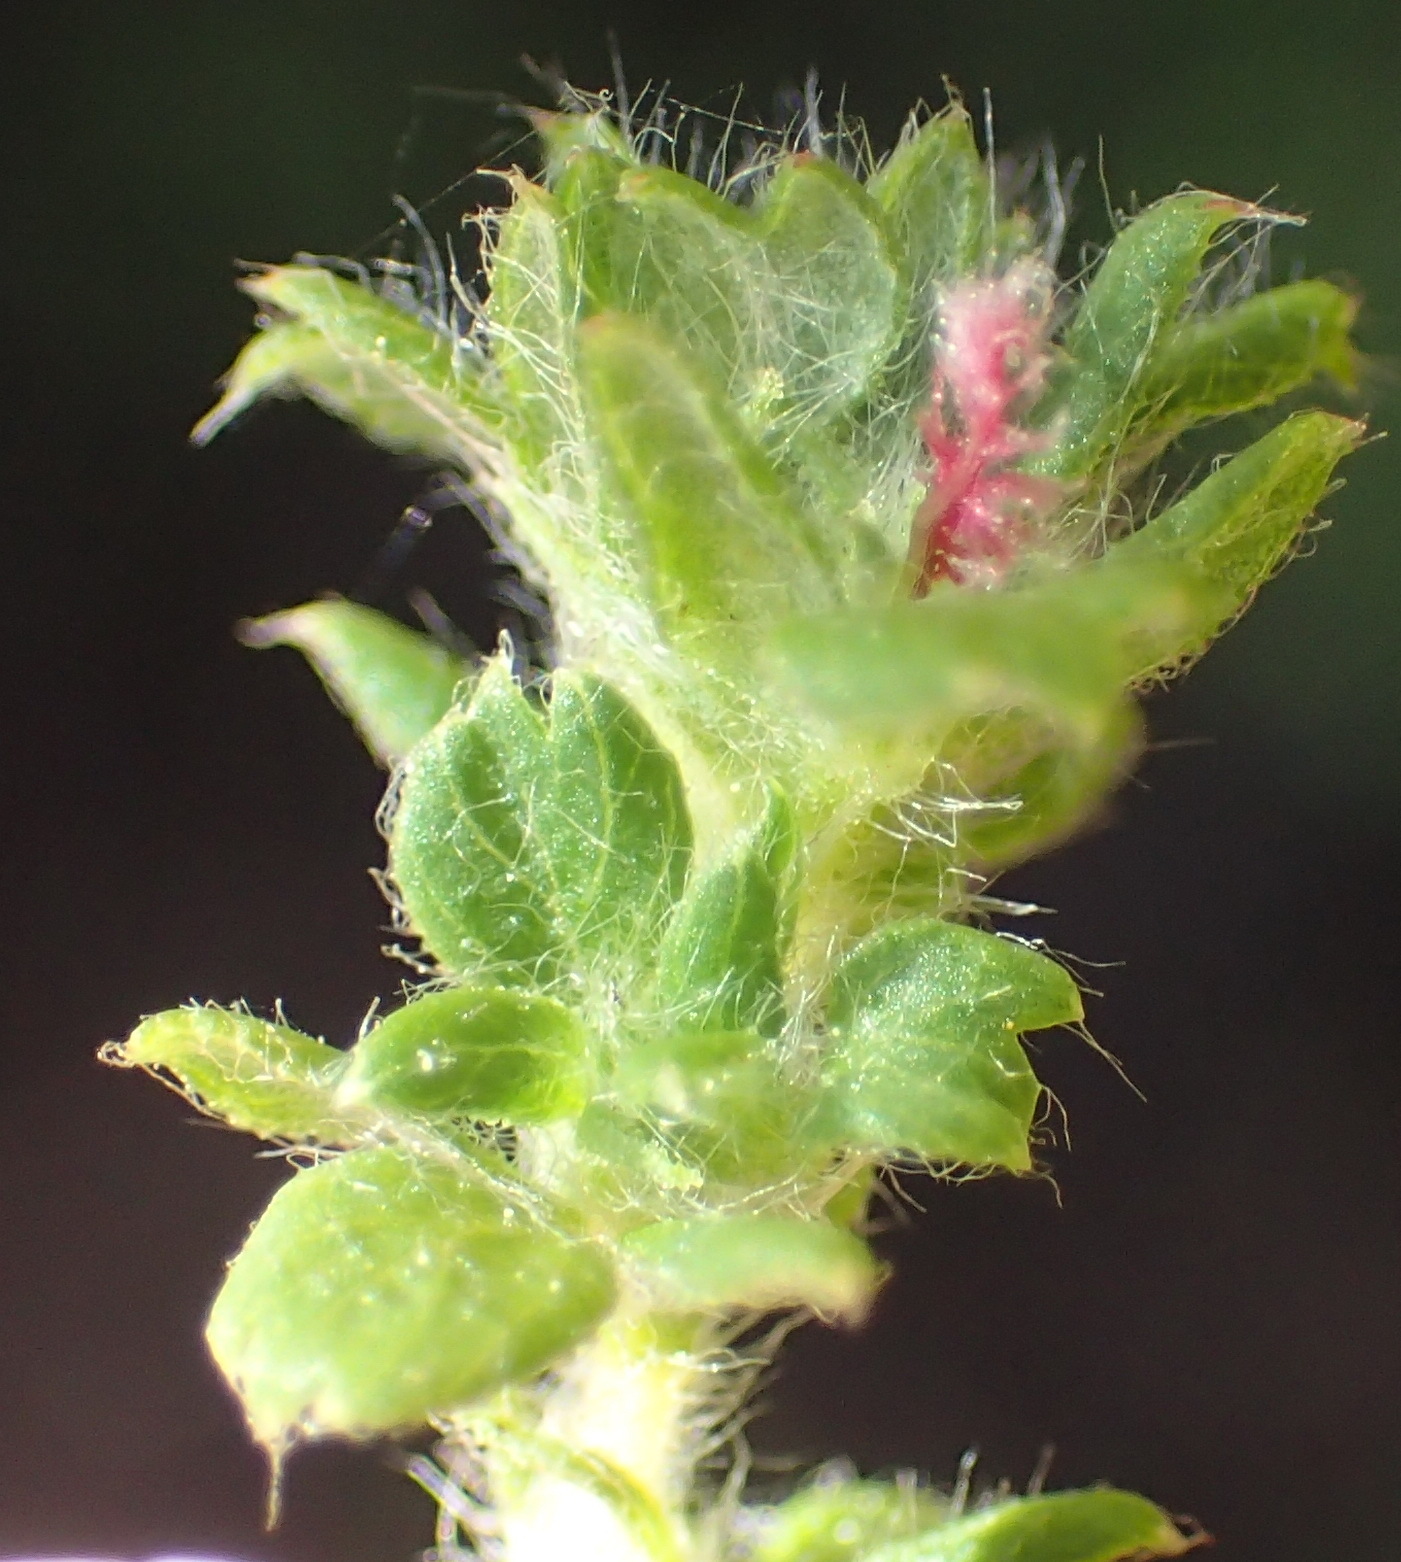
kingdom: Plantae
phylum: Tracheophyta
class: Magnoliopsida
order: Rosales
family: Rosaceae
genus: Cliffortia
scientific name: Cliffortia filicaulis
